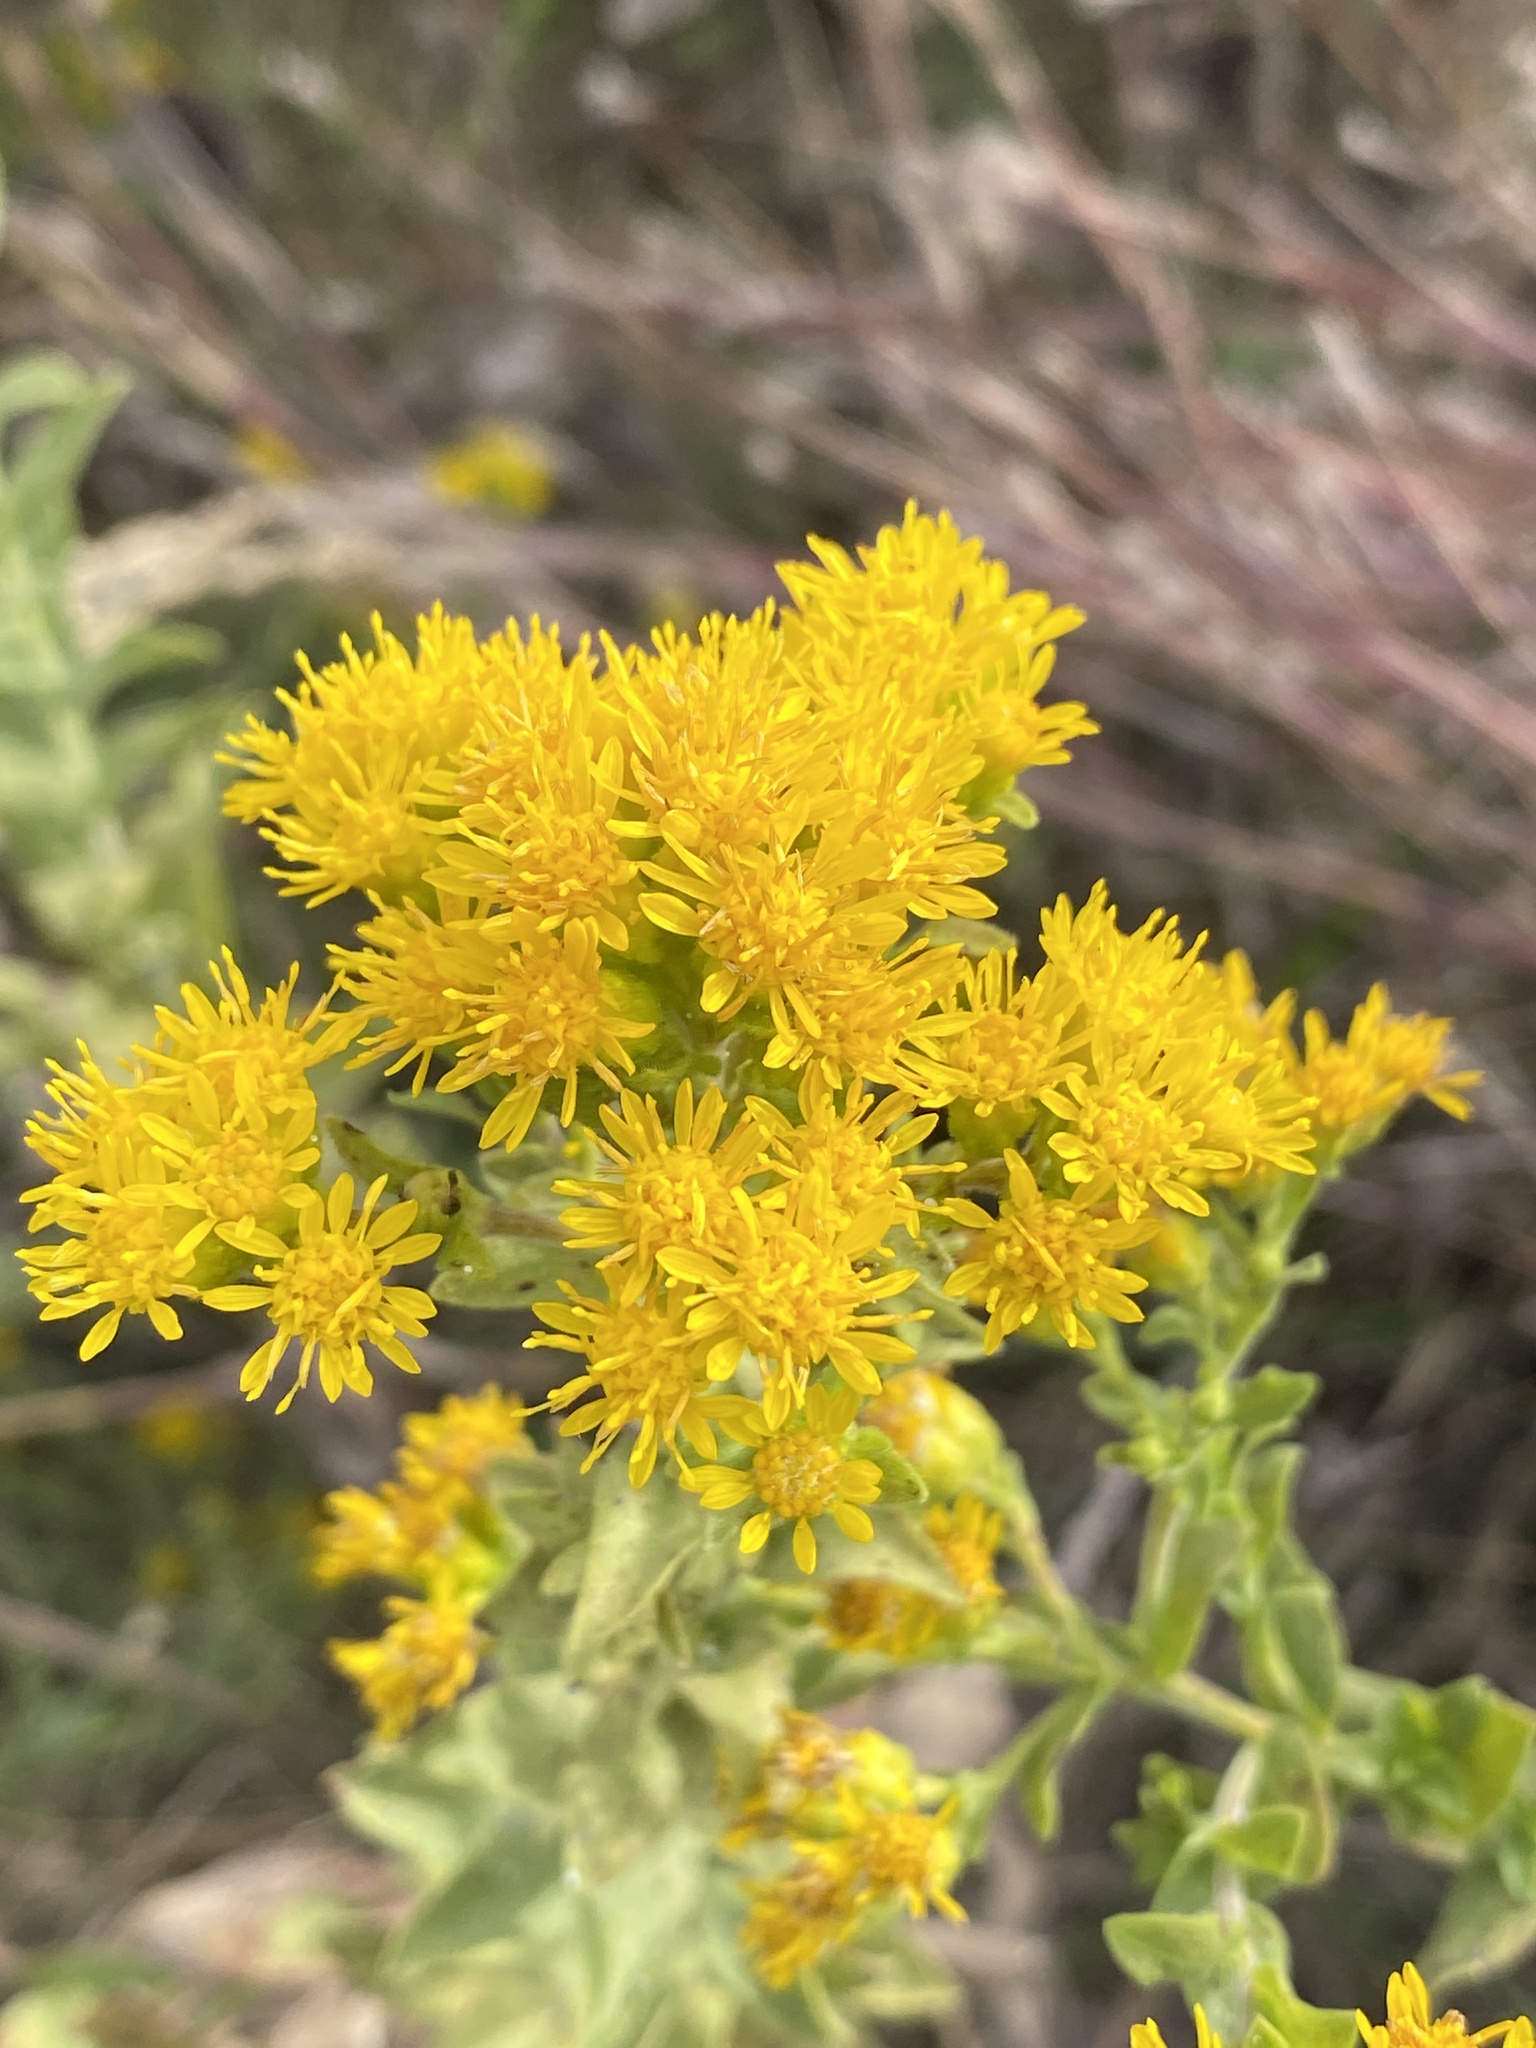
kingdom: Plantae
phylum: Tracheophyta
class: Magnoliopsida
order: Asterales
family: Asteraceae
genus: Solidago
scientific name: Solidago rigida
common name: Rigid goldenrod
